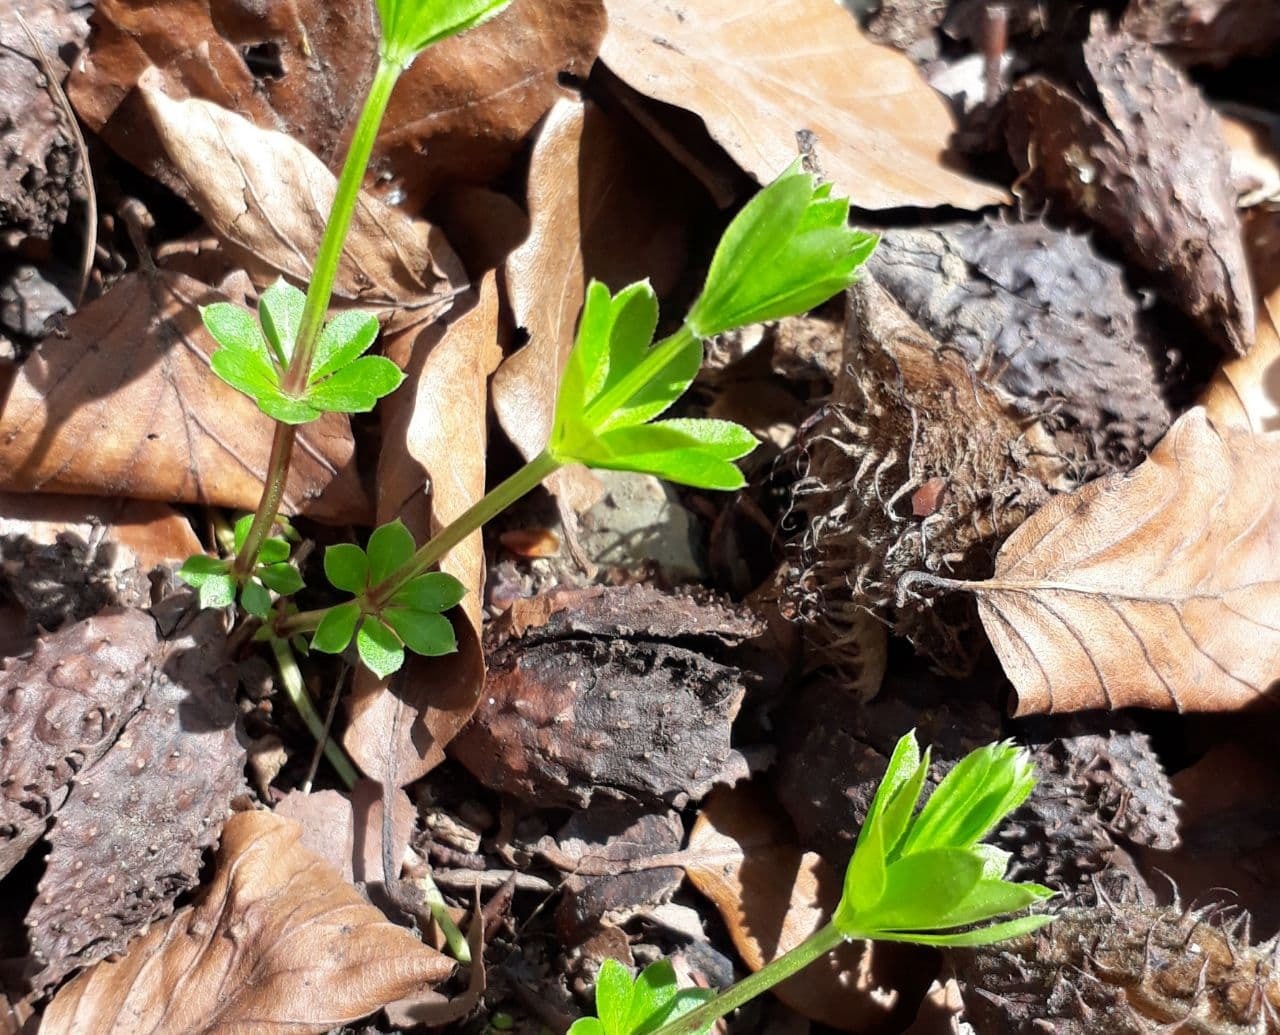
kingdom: Plantae
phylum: Tracheophyta
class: Magnoliopsida
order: Gentianales
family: Rubiaceae
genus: Galium
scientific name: Galium odoratum
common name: Sweet woodruff
